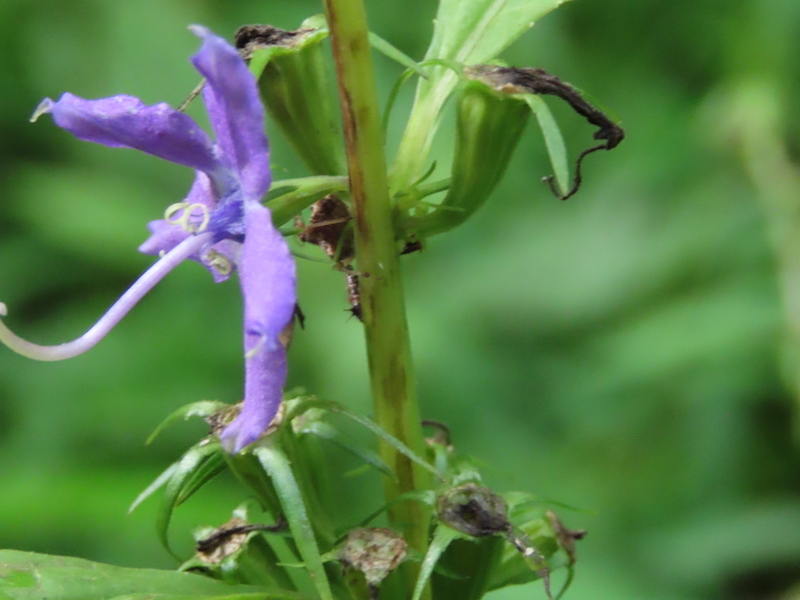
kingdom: Plantae
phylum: Tracheophyta
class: Magnoliopsida
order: Asterales
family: Campanulaceae
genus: Campanulastrum
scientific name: Campanulastrum americanum
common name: American bellflower
